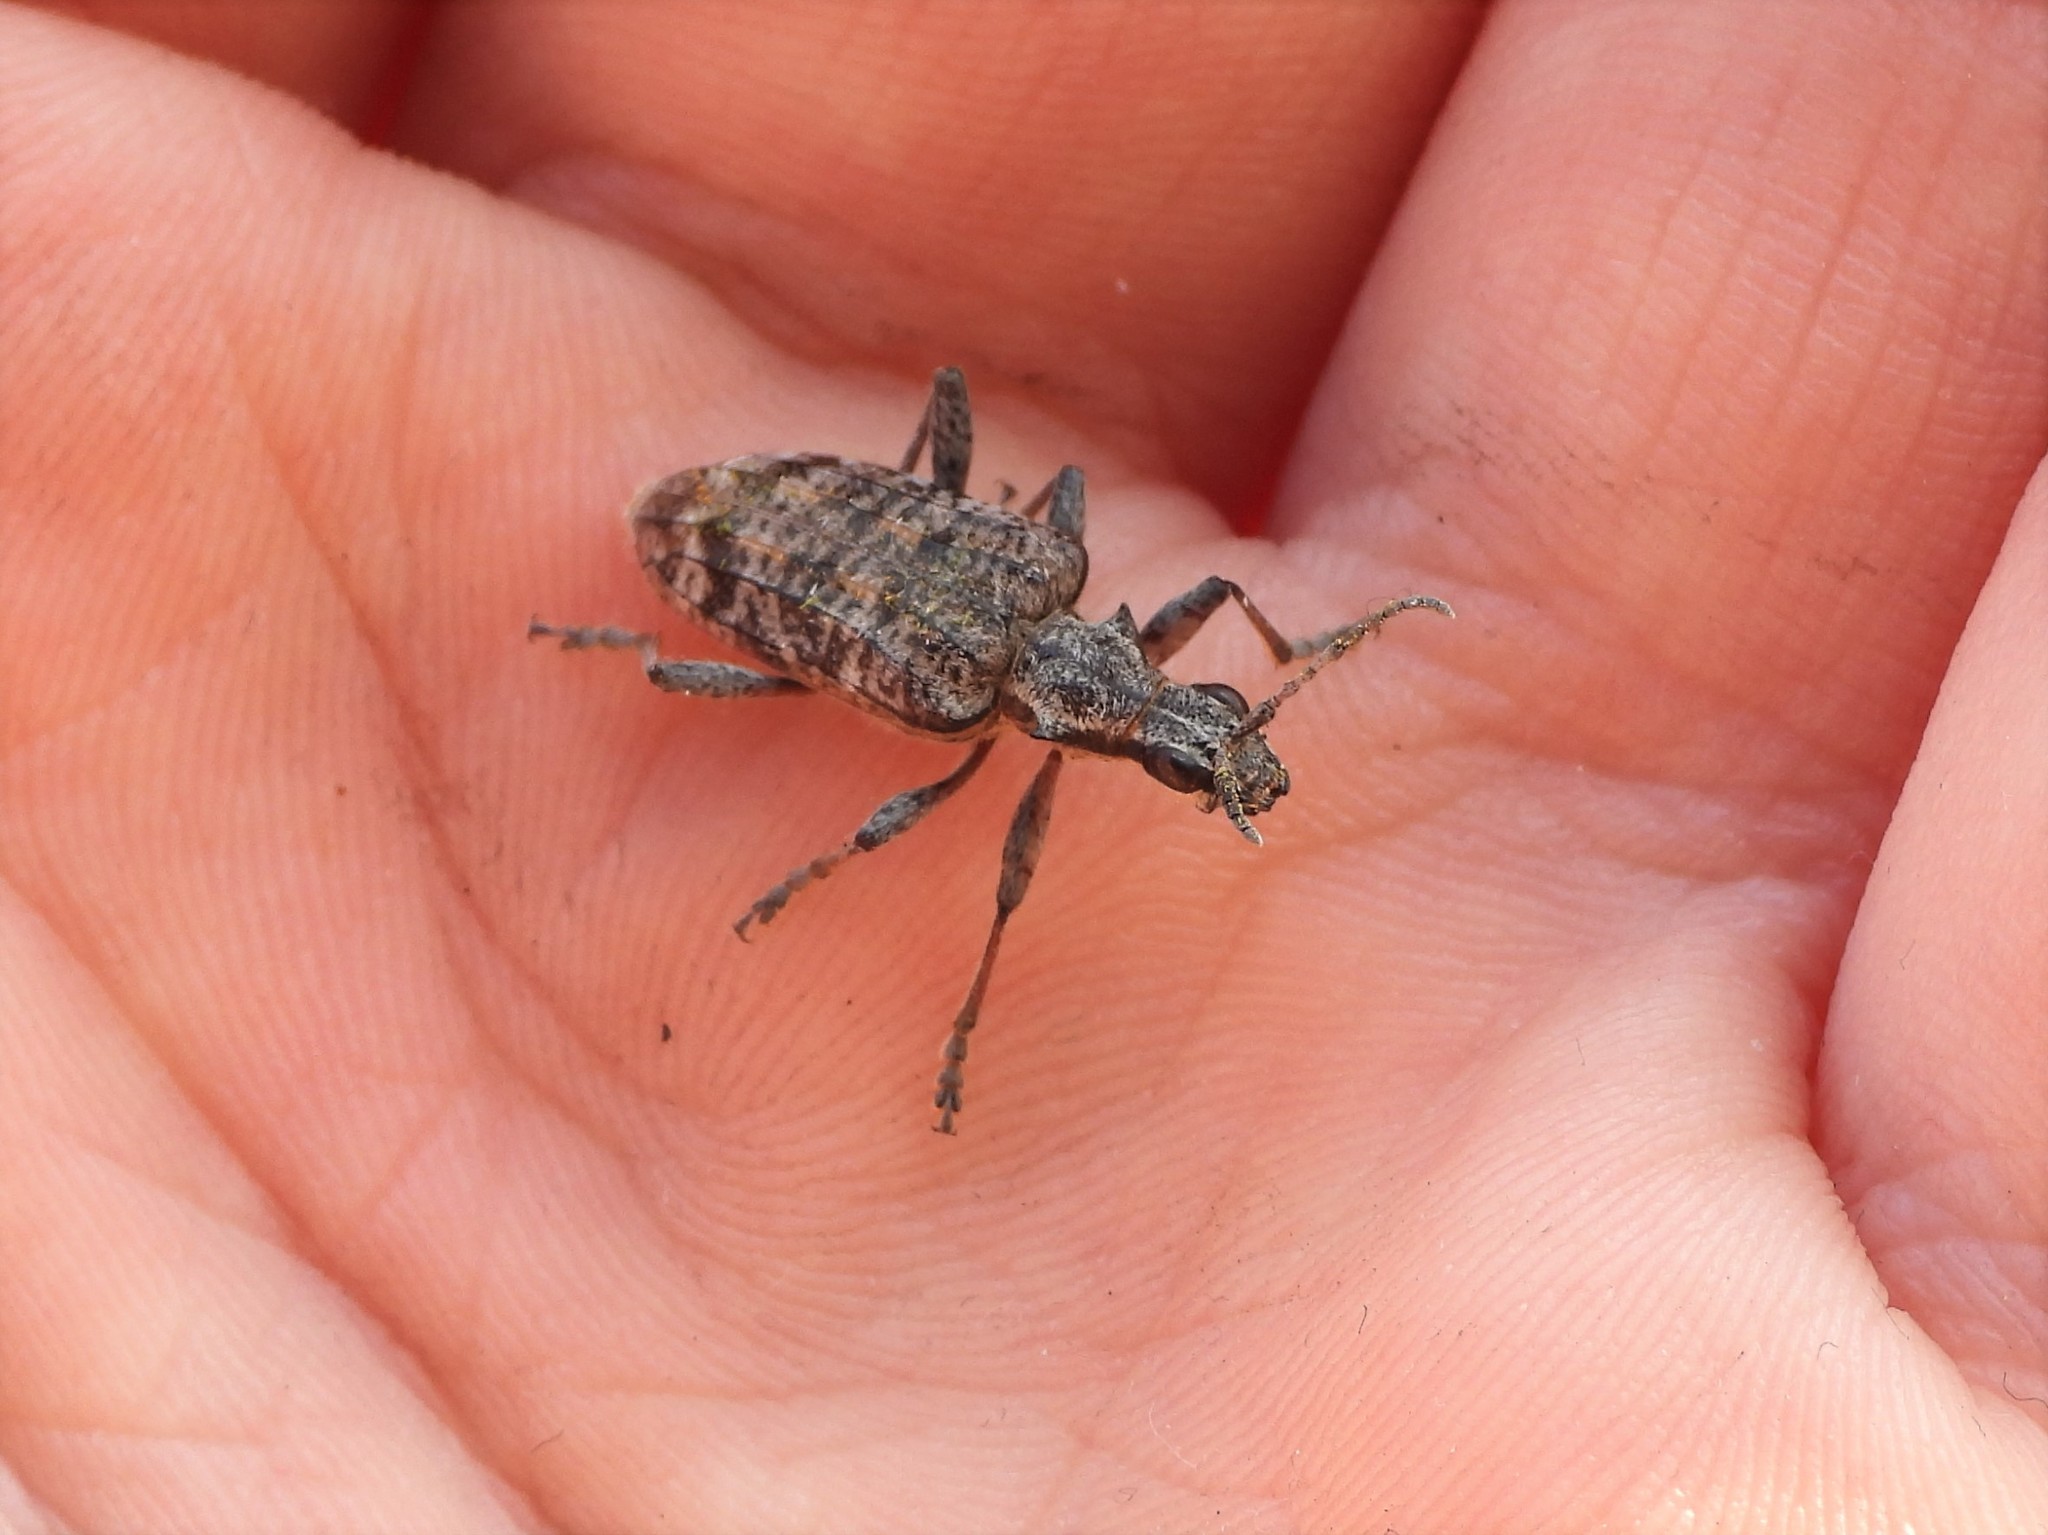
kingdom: Animalia
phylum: Arthropoda
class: Insecta
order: Coleoptera
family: Cerambycidae
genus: Rhagium
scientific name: Rhagium inquisitor
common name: Ribbed pine borer
